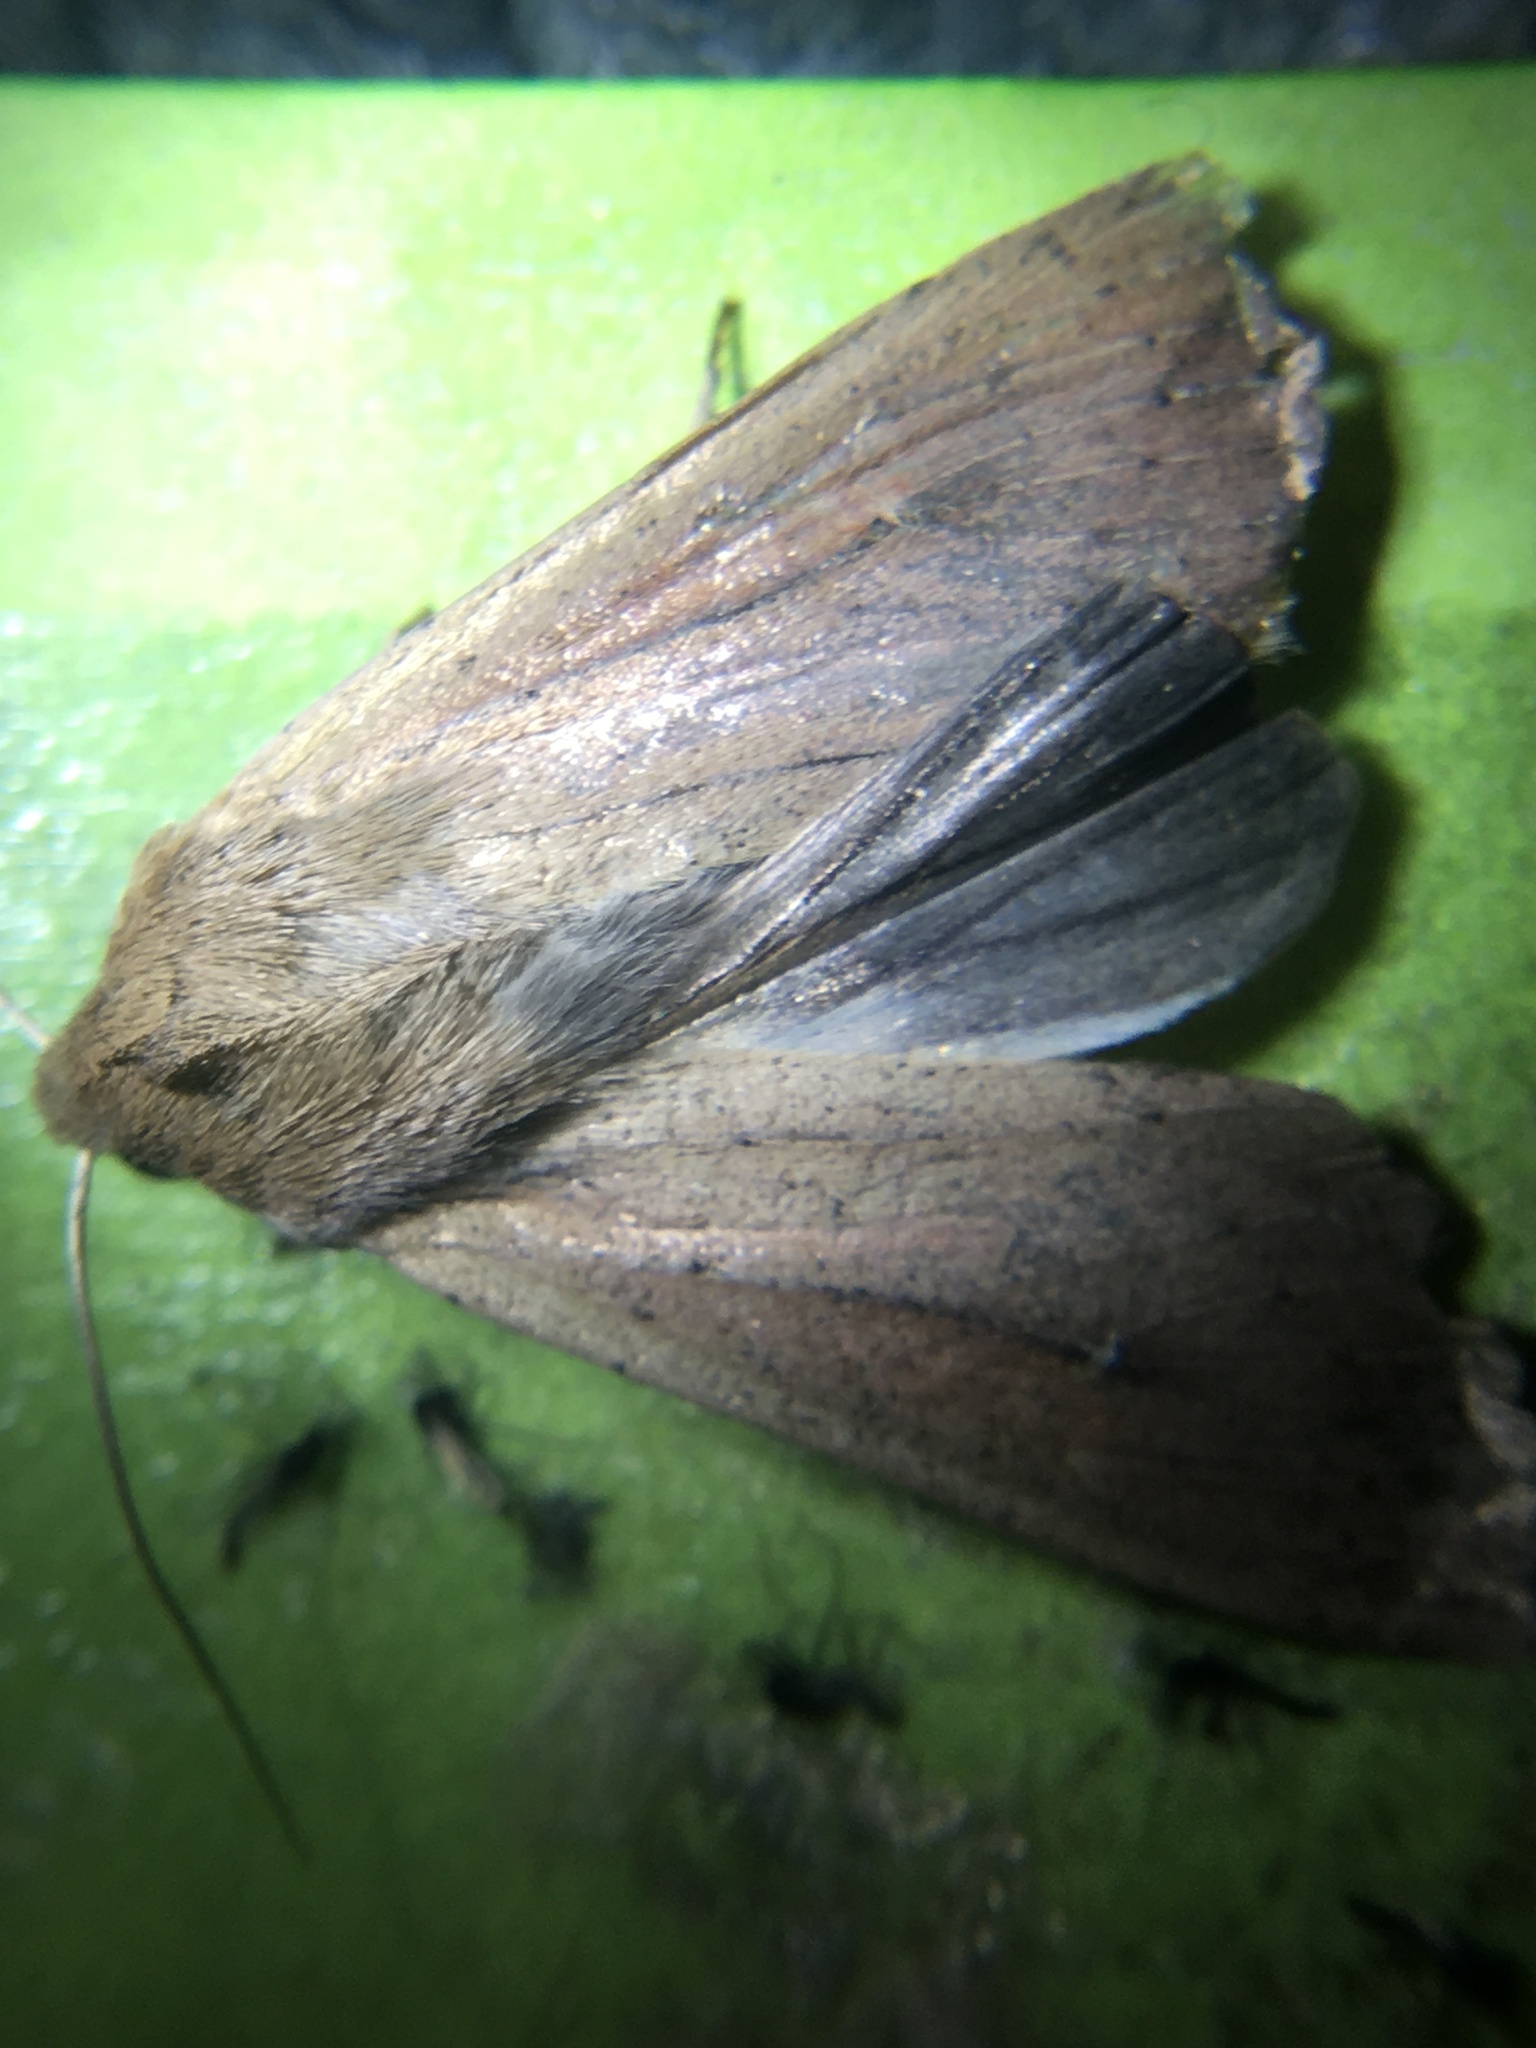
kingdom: Animalia
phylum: Arthropoda
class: Insecta
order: Lepidoptera
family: Noctuidae
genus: Mythimna
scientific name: Mythimna unipuncta
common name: White-speck
